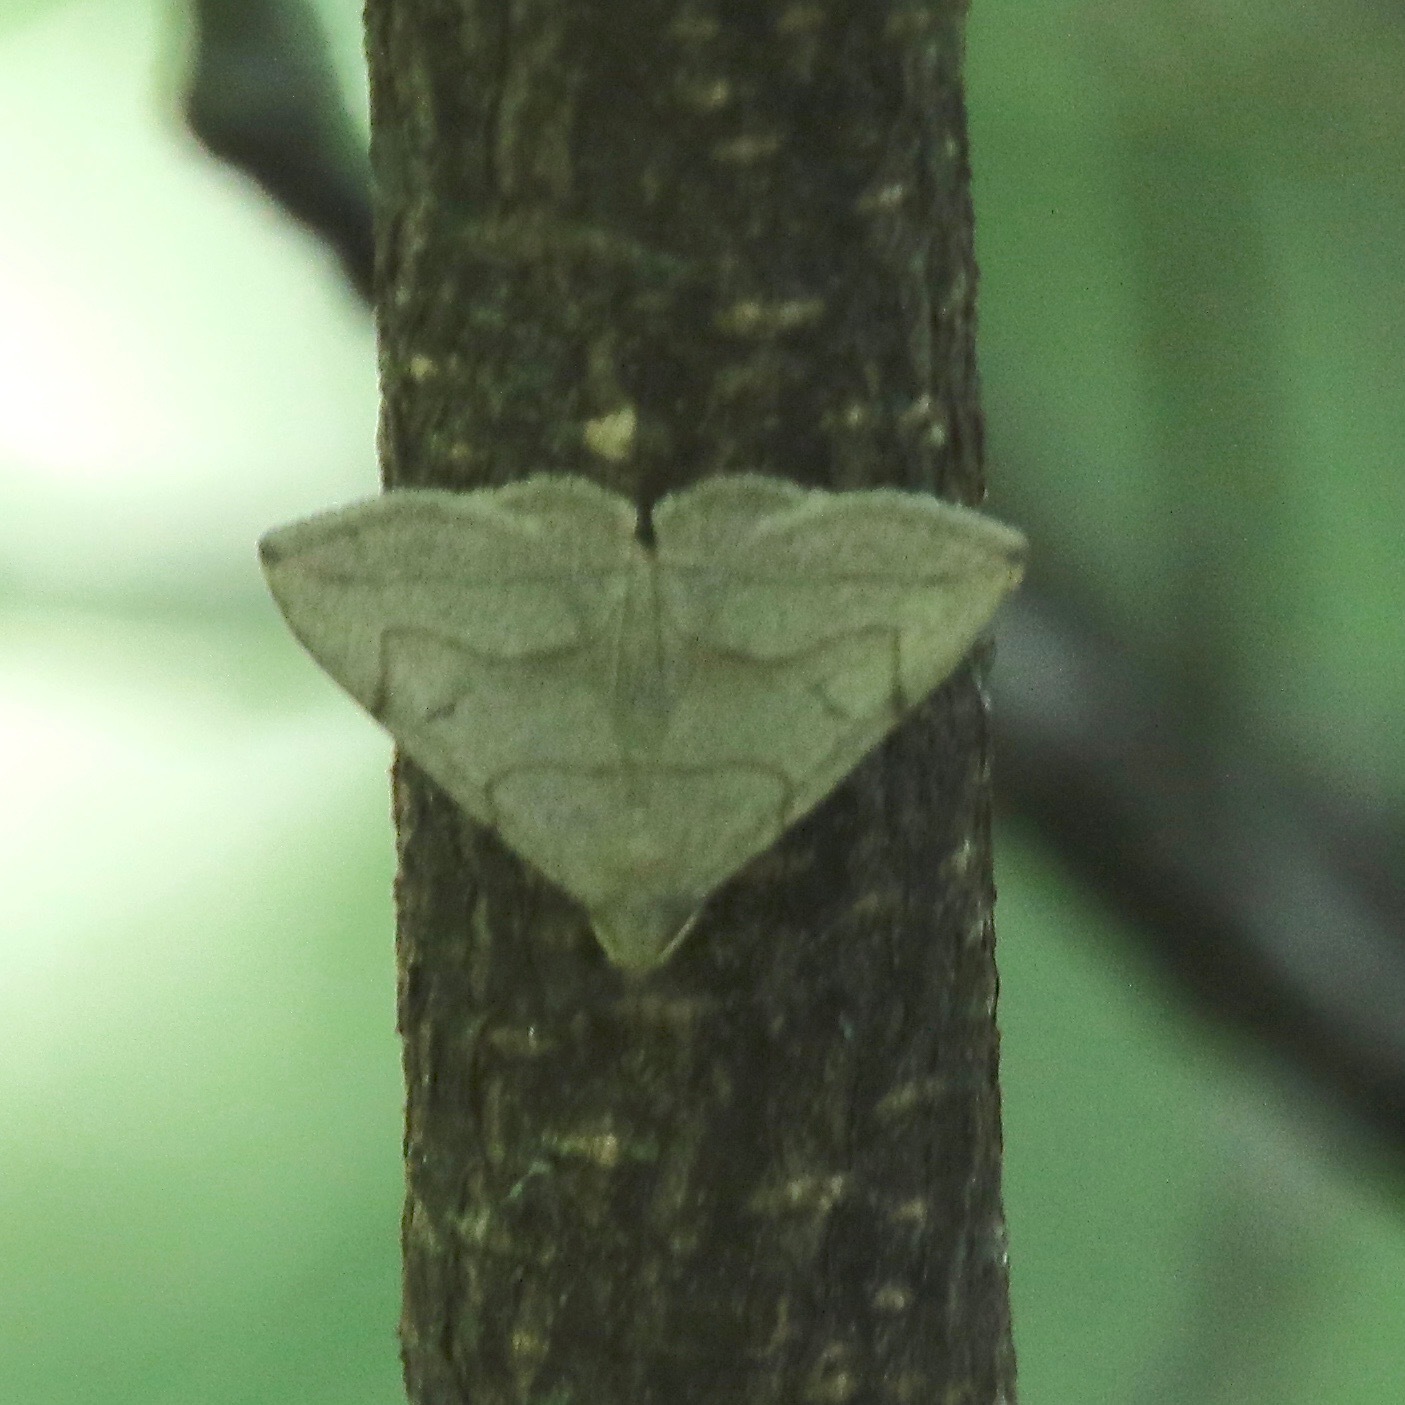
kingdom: Animalia
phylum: Arthropoda
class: Insecta
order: Lepidoptera
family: Erebidae
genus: Zanclognatha
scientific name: Zanclognatha pedipilalis
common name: Grayish fan-foot
